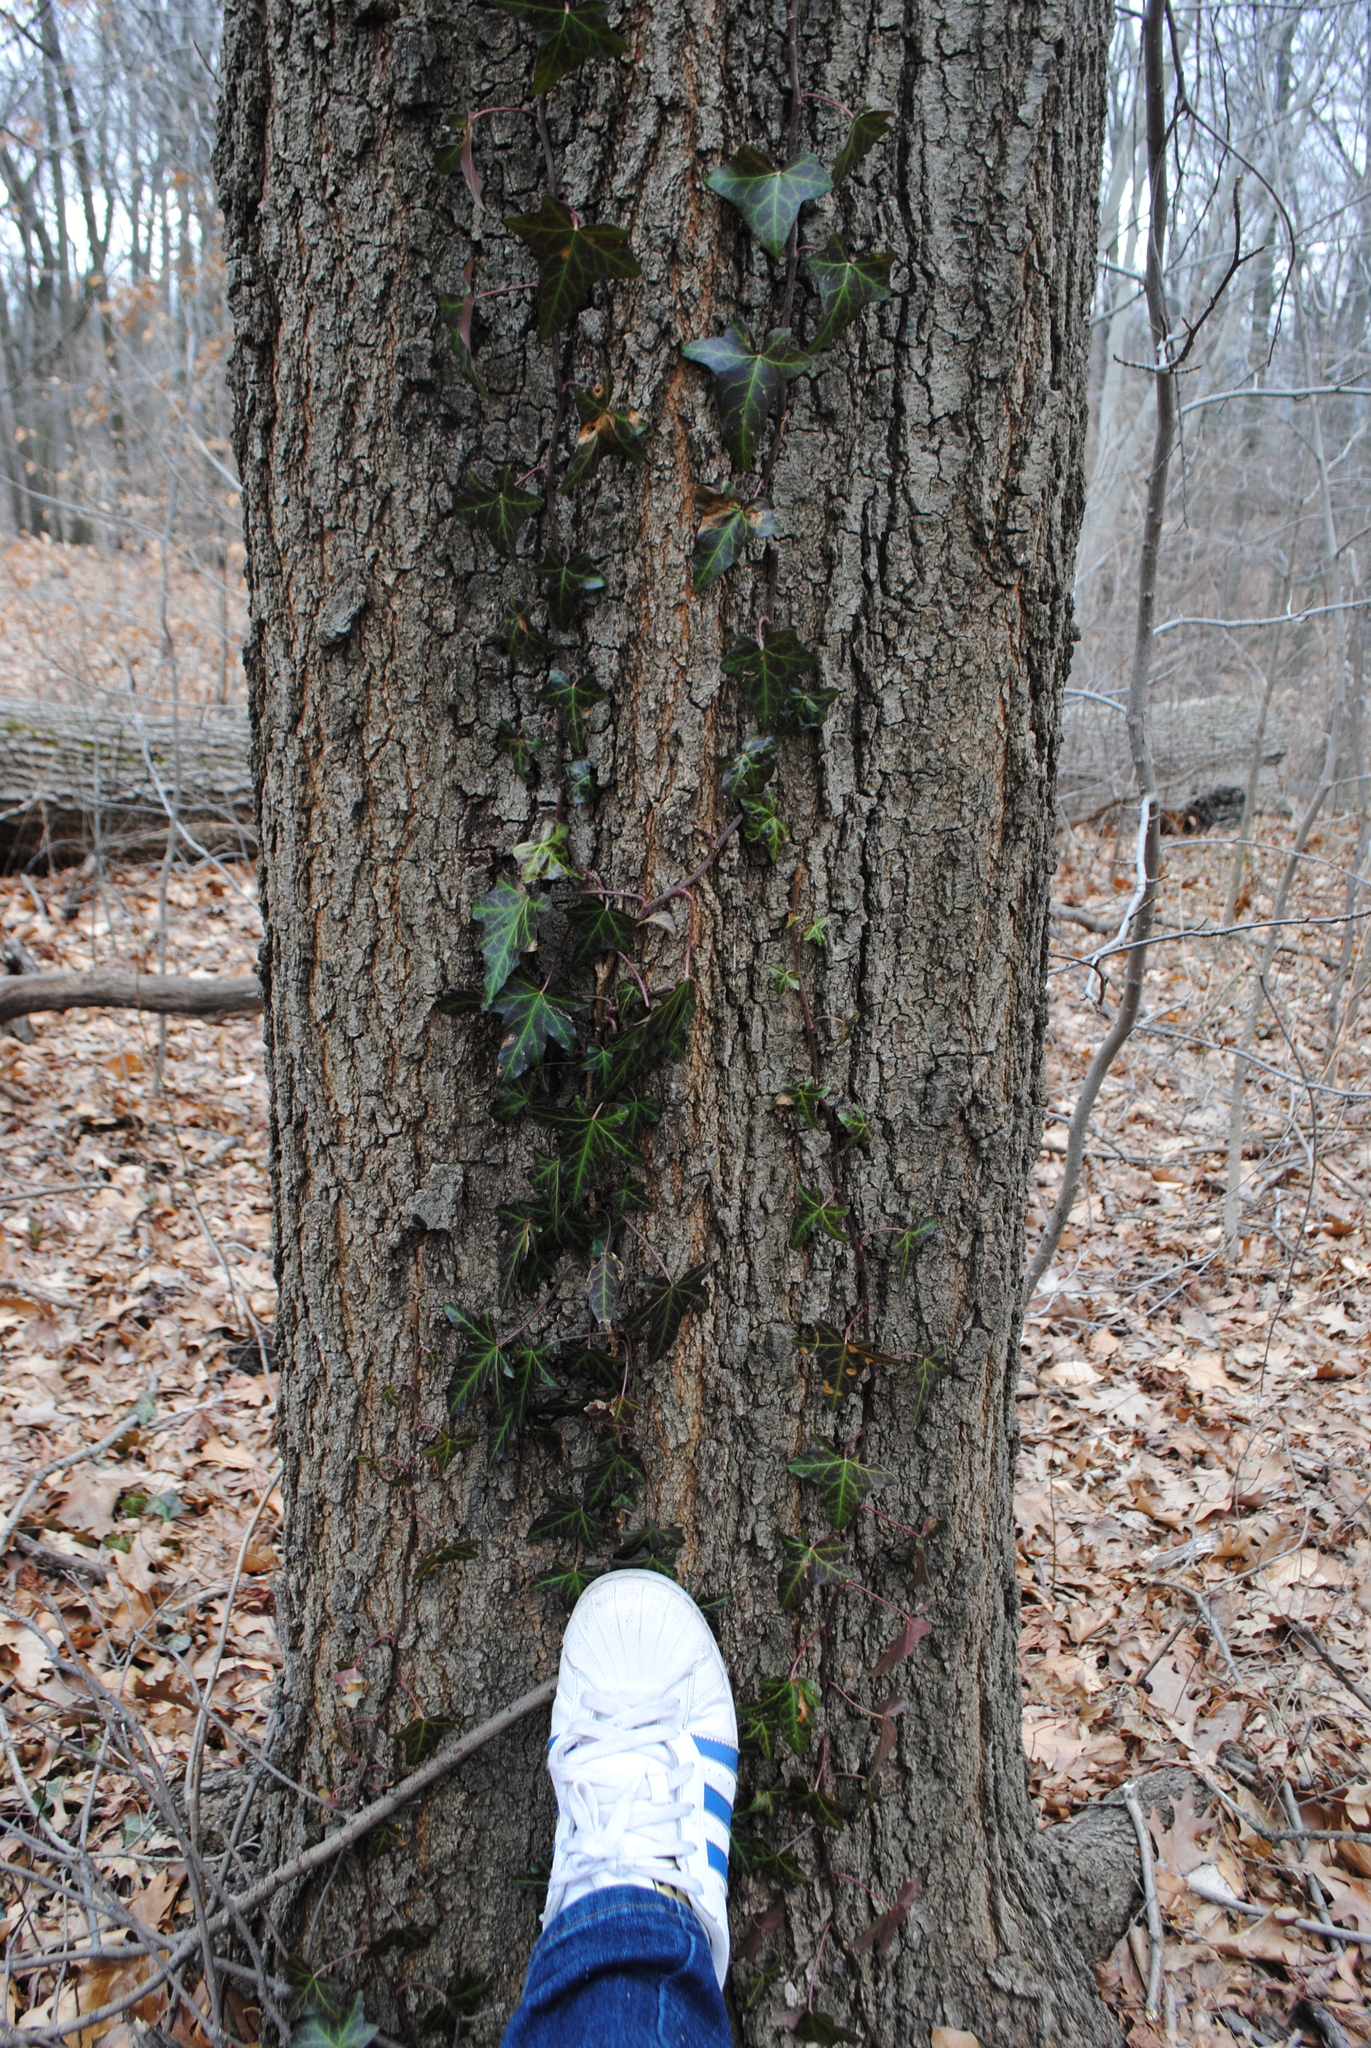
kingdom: Plantae
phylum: Tracheophyta
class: Magnoliopsida
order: Fagales
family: Fagaceae
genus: Quercus
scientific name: Quercus phellos
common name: Willow oak
